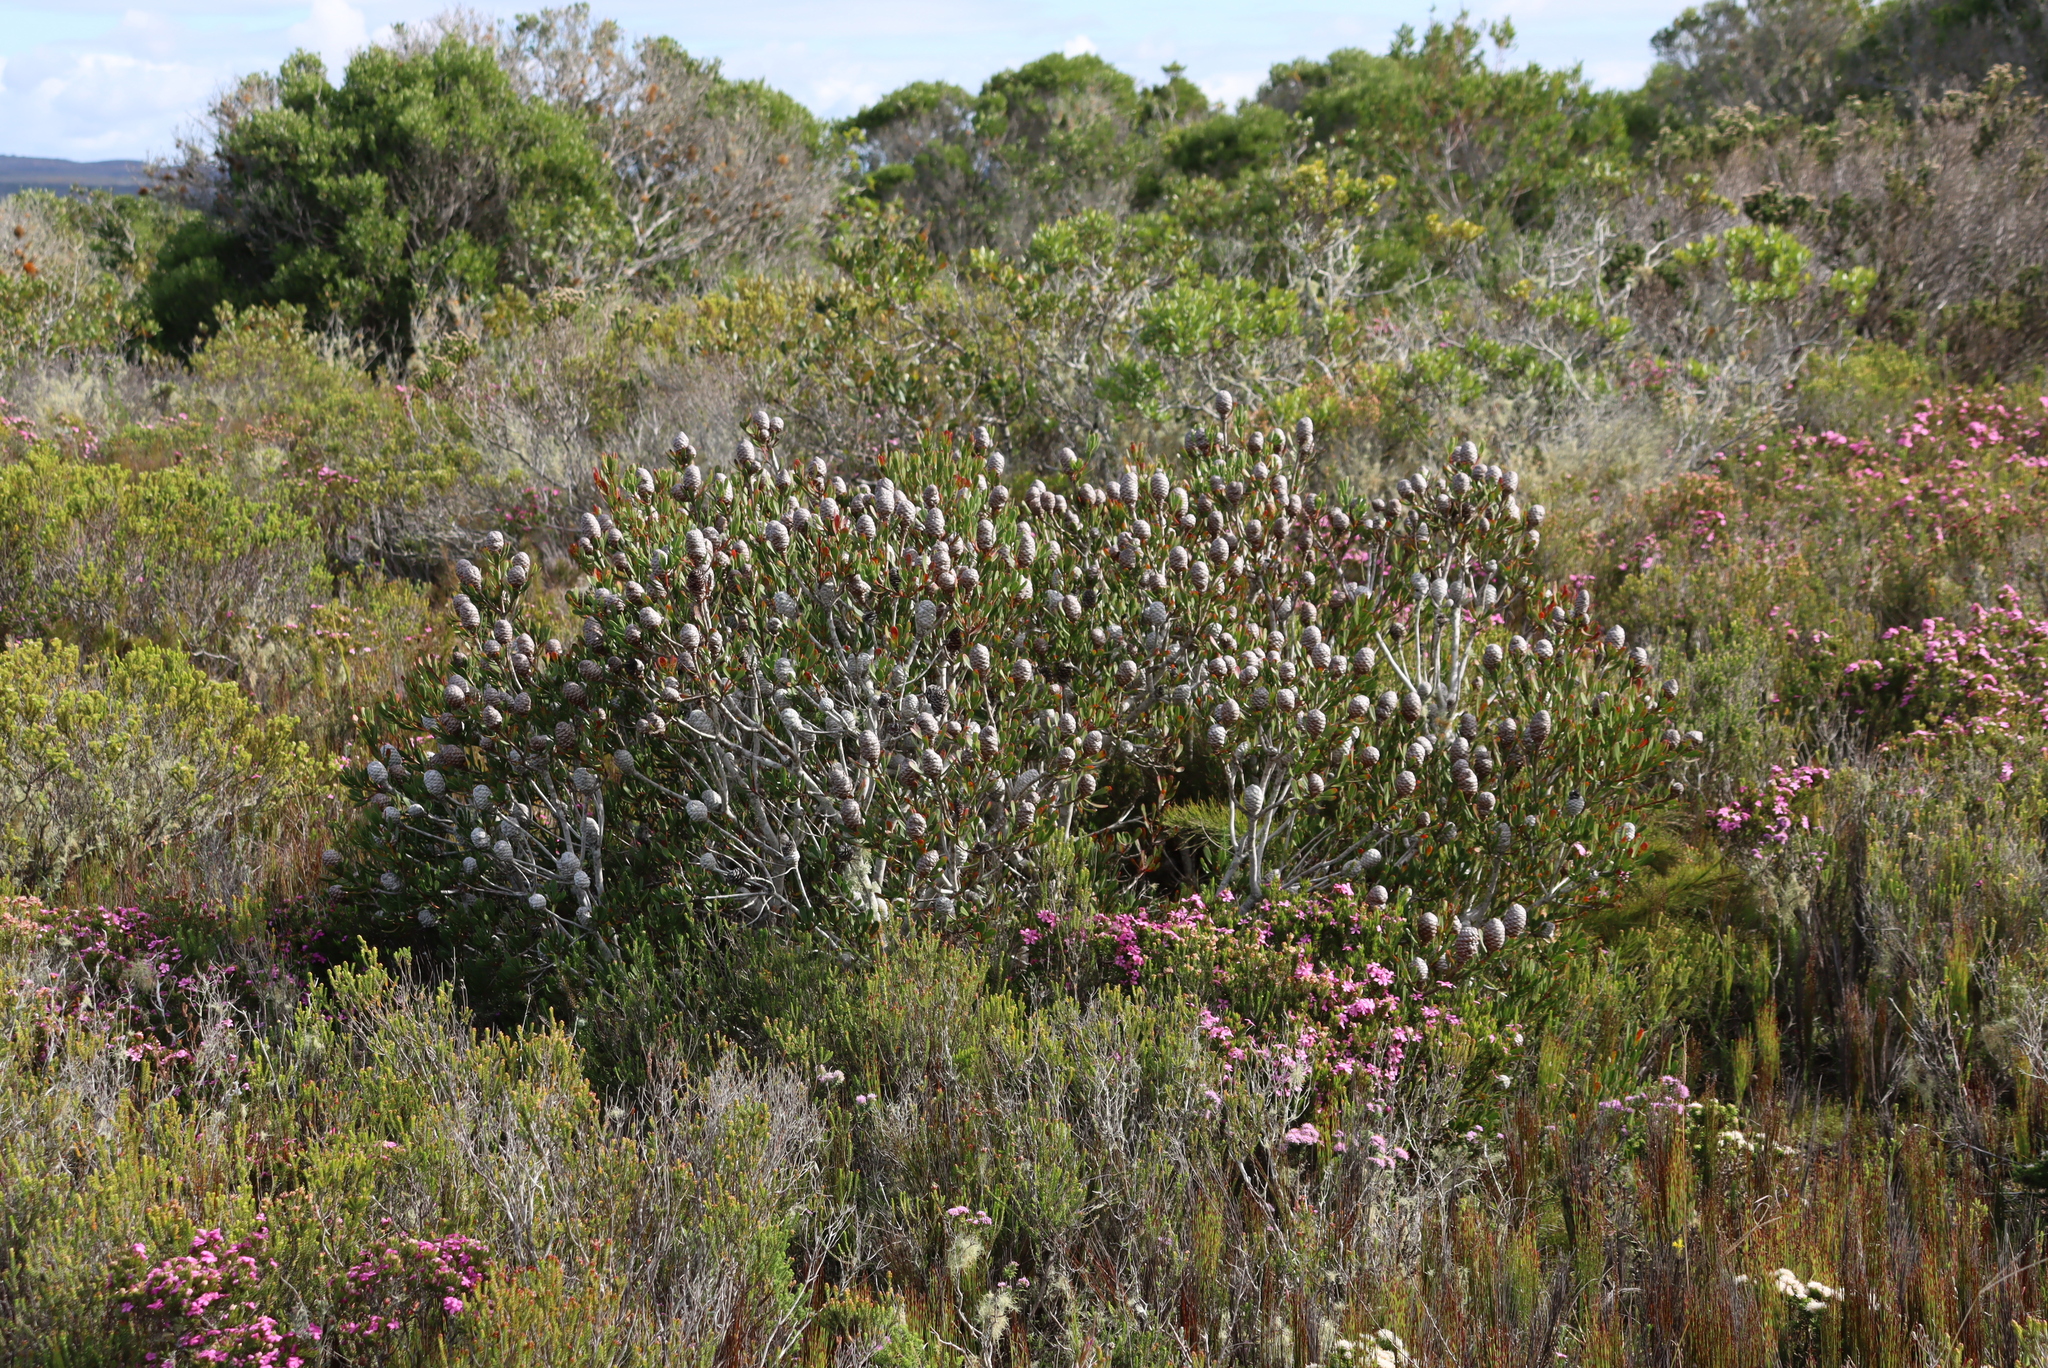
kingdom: Plantae
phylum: Tracheophyta
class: Magnoliopsida
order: Proteales
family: Proteaceae
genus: Leucadendron
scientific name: Leucadendron muirii
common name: Silver-ball conebush
